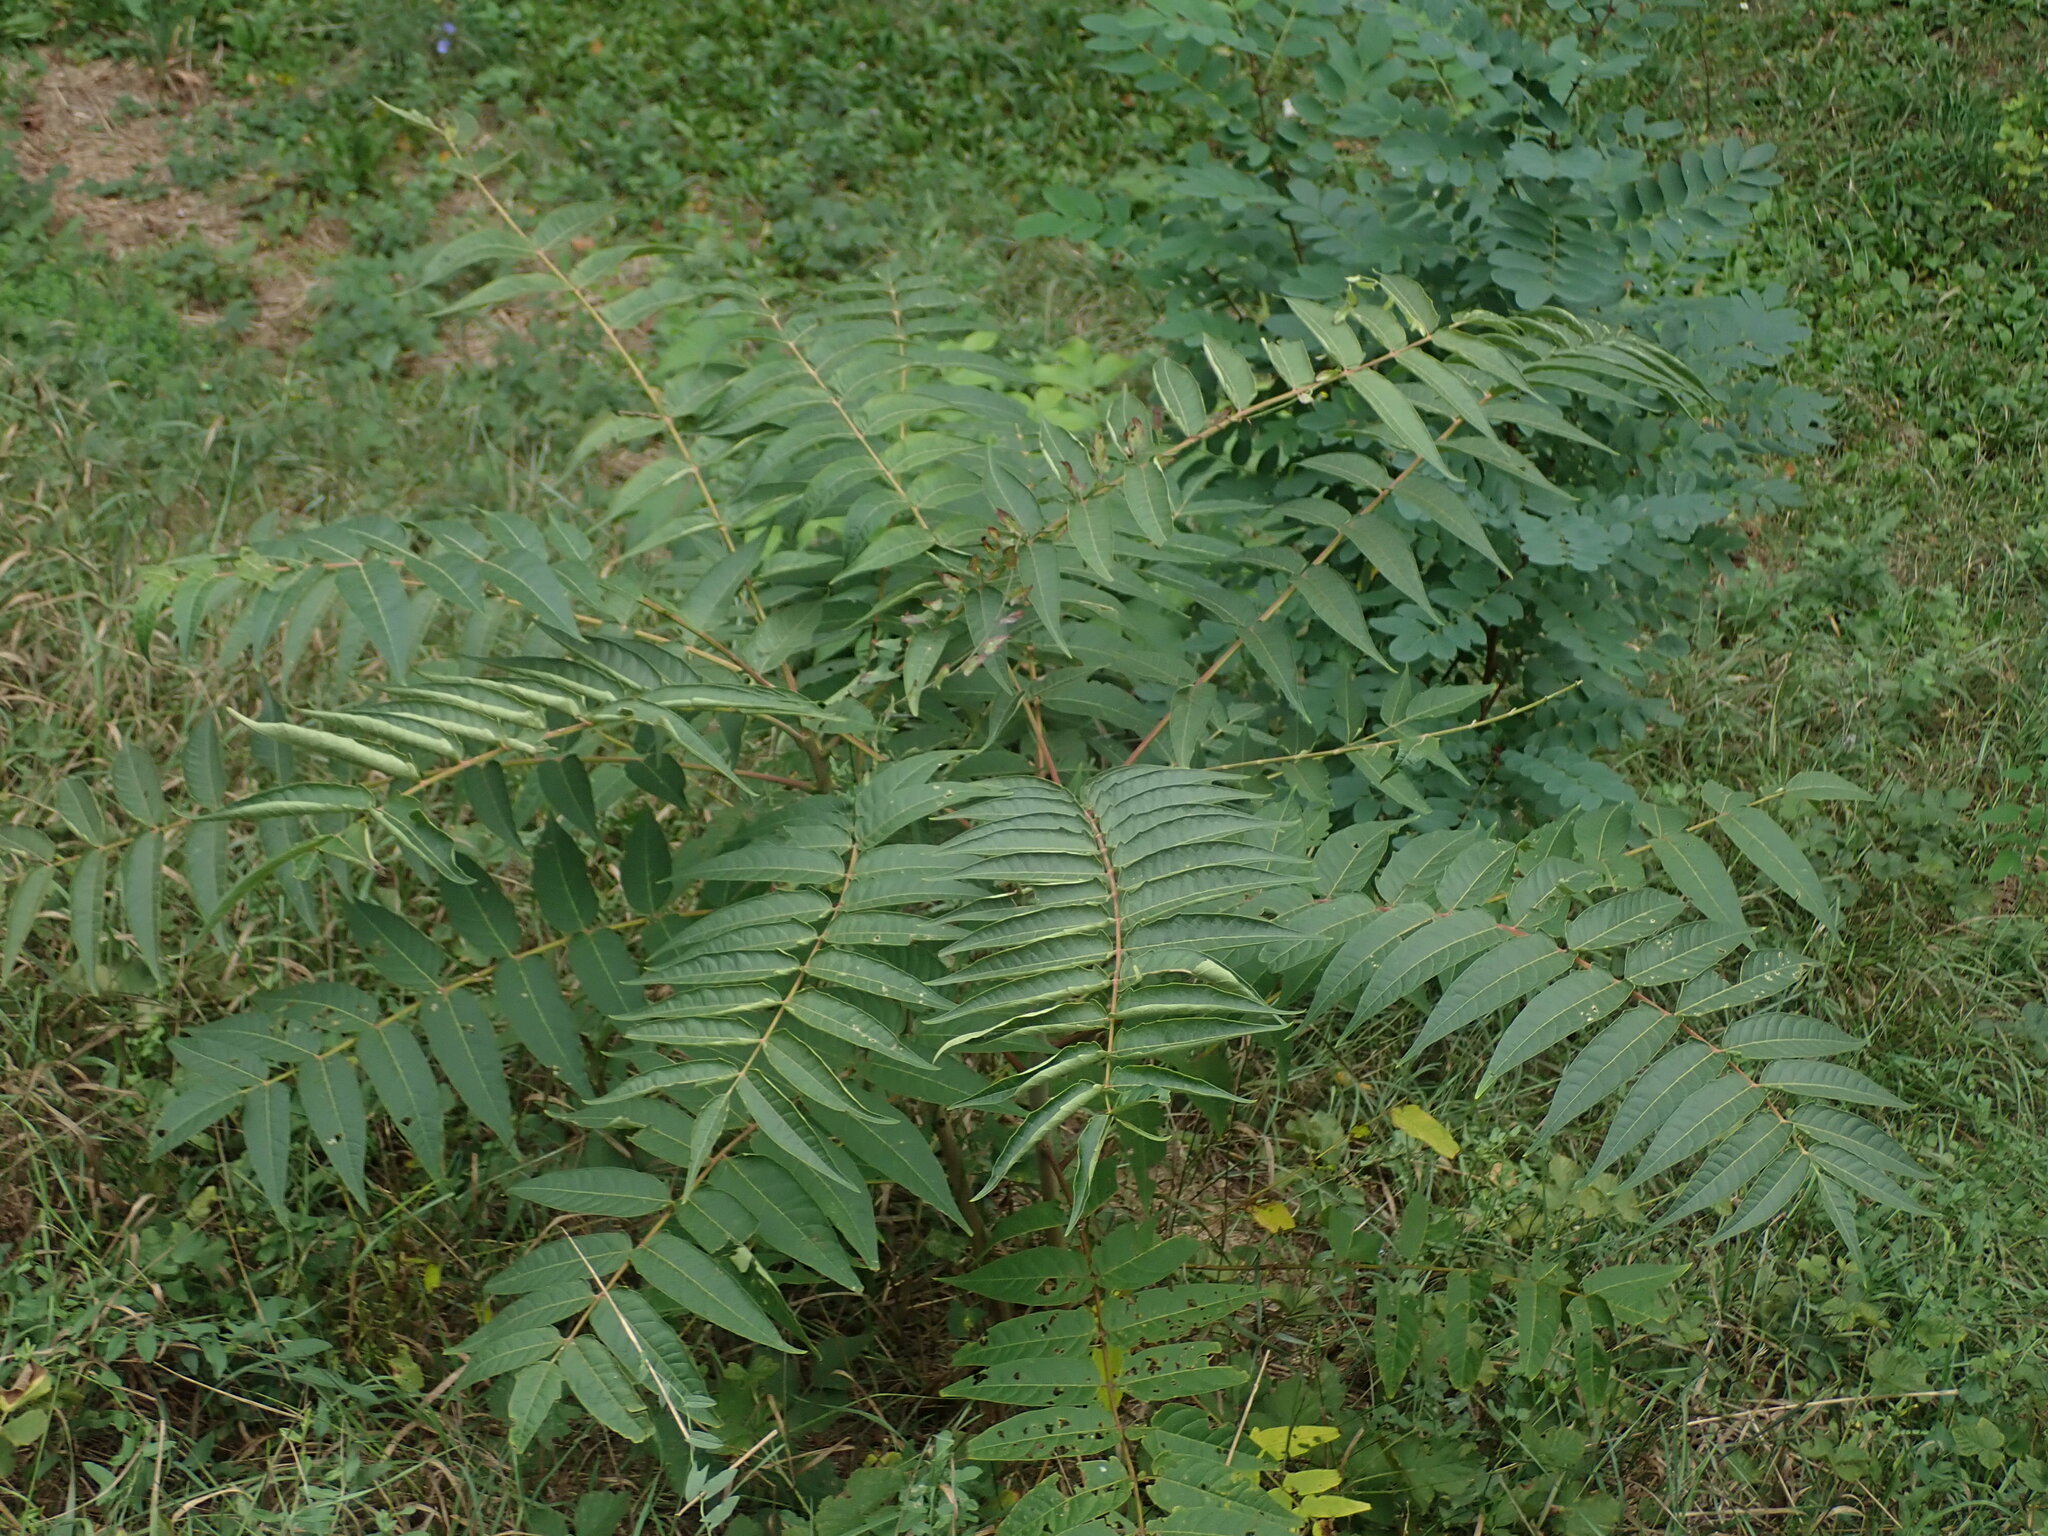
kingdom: Plantae
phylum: Tracheophyta
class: Magnoliopsida
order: Sapindales
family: Simaroubaceae
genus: Ailanthus
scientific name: Ailanthus altissima
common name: Tree-of-heaven
